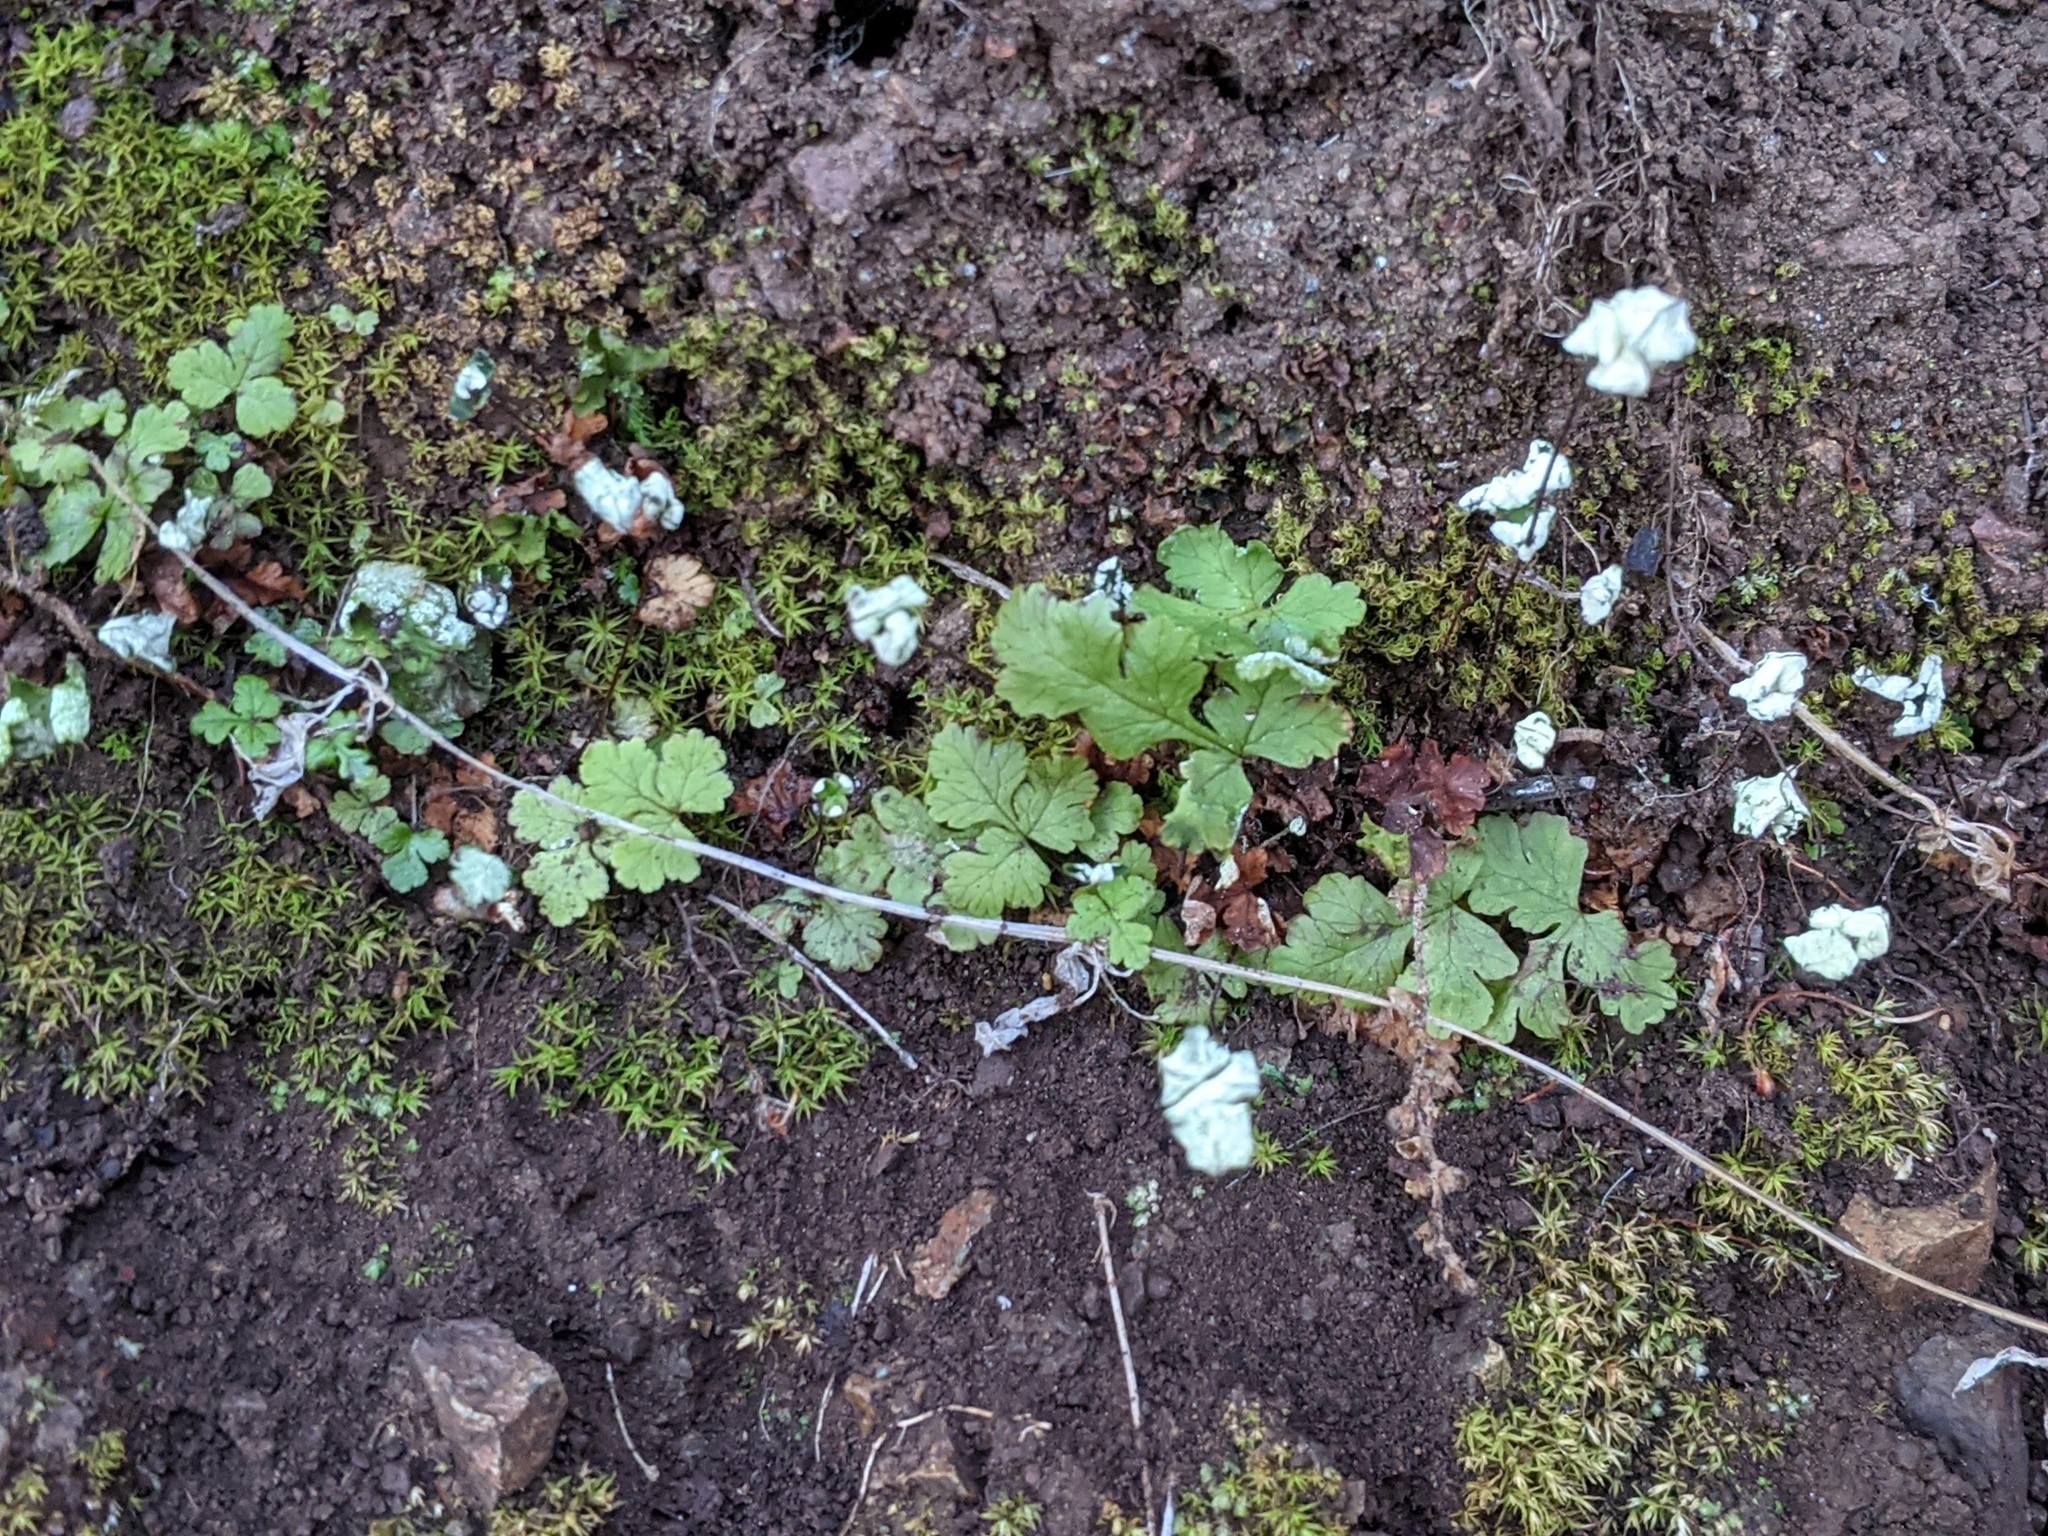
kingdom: Plantae
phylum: Tracheophyta
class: Polypodiopsida
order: Polypodiales
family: Pteridaceae
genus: Pentagramma
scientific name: Pentagramma triangularis
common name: Gold fern
